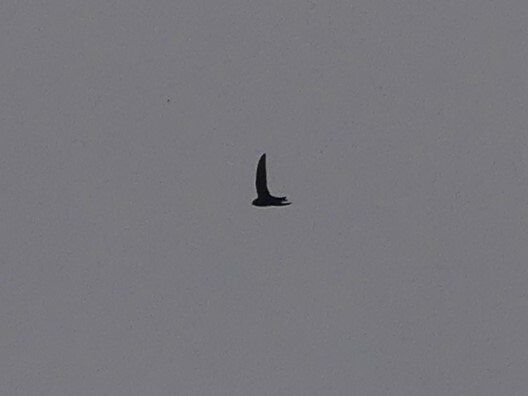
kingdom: Animalia
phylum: Chordata
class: Aves
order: Apodiformes
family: Apodidae
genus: Cypseloides
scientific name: Cypseloides niger
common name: Black swift
